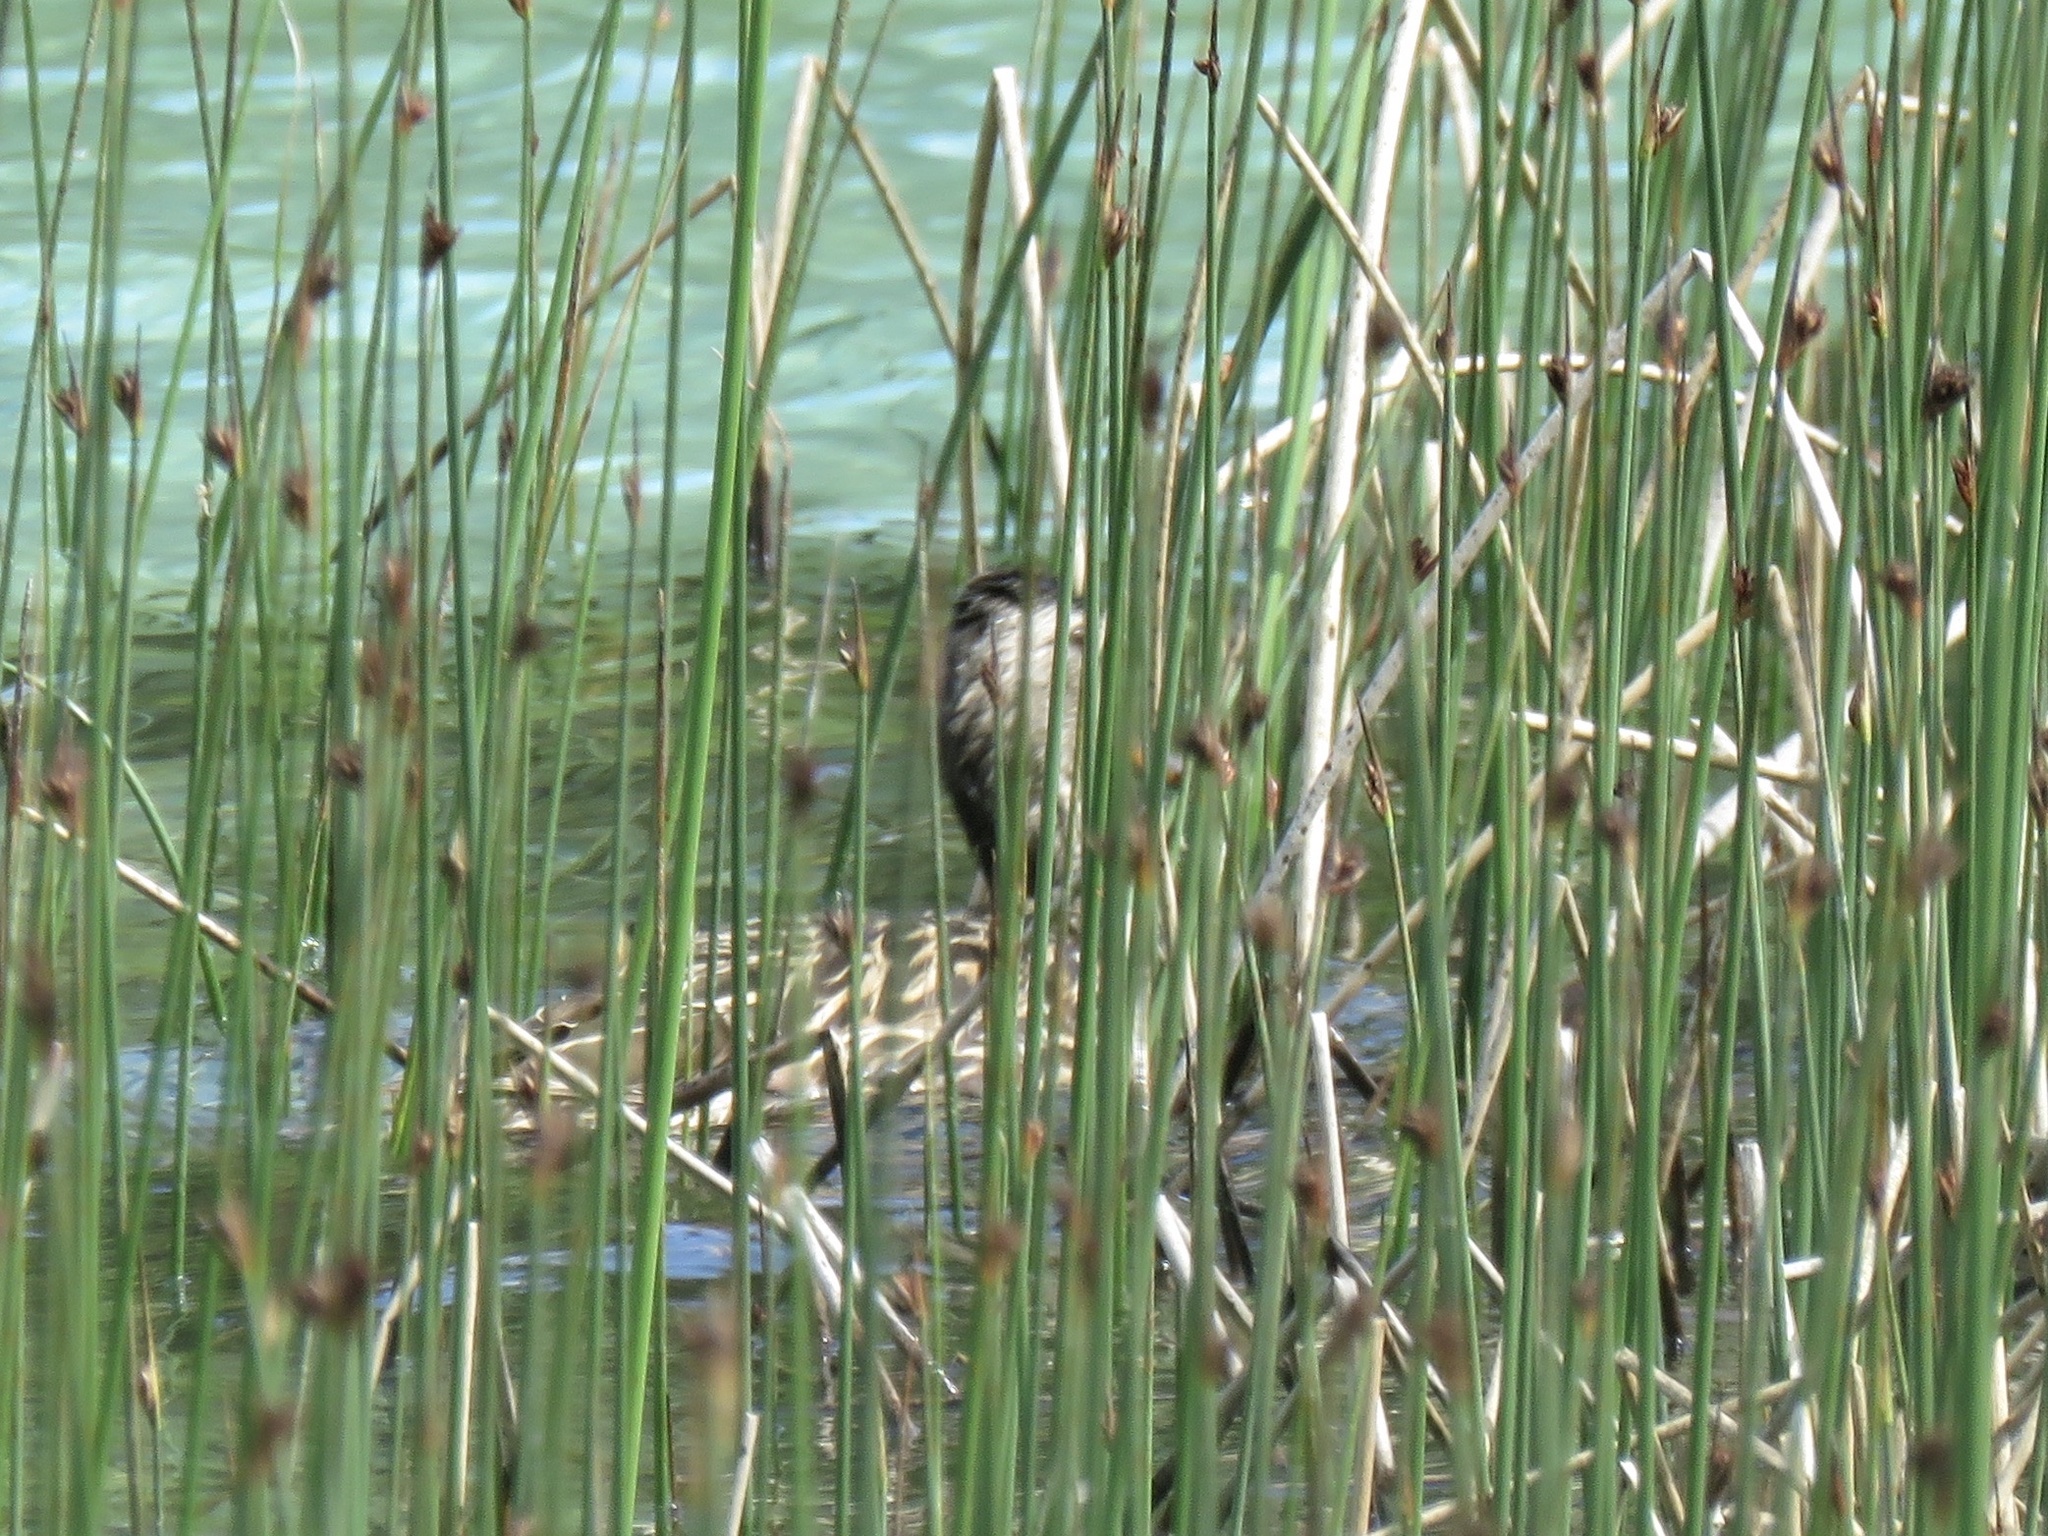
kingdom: Animalia
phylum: Chordata
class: Aves
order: Anseriformes
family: Anatidae
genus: Anas
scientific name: Anas platyrhynchos
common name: Mallard
